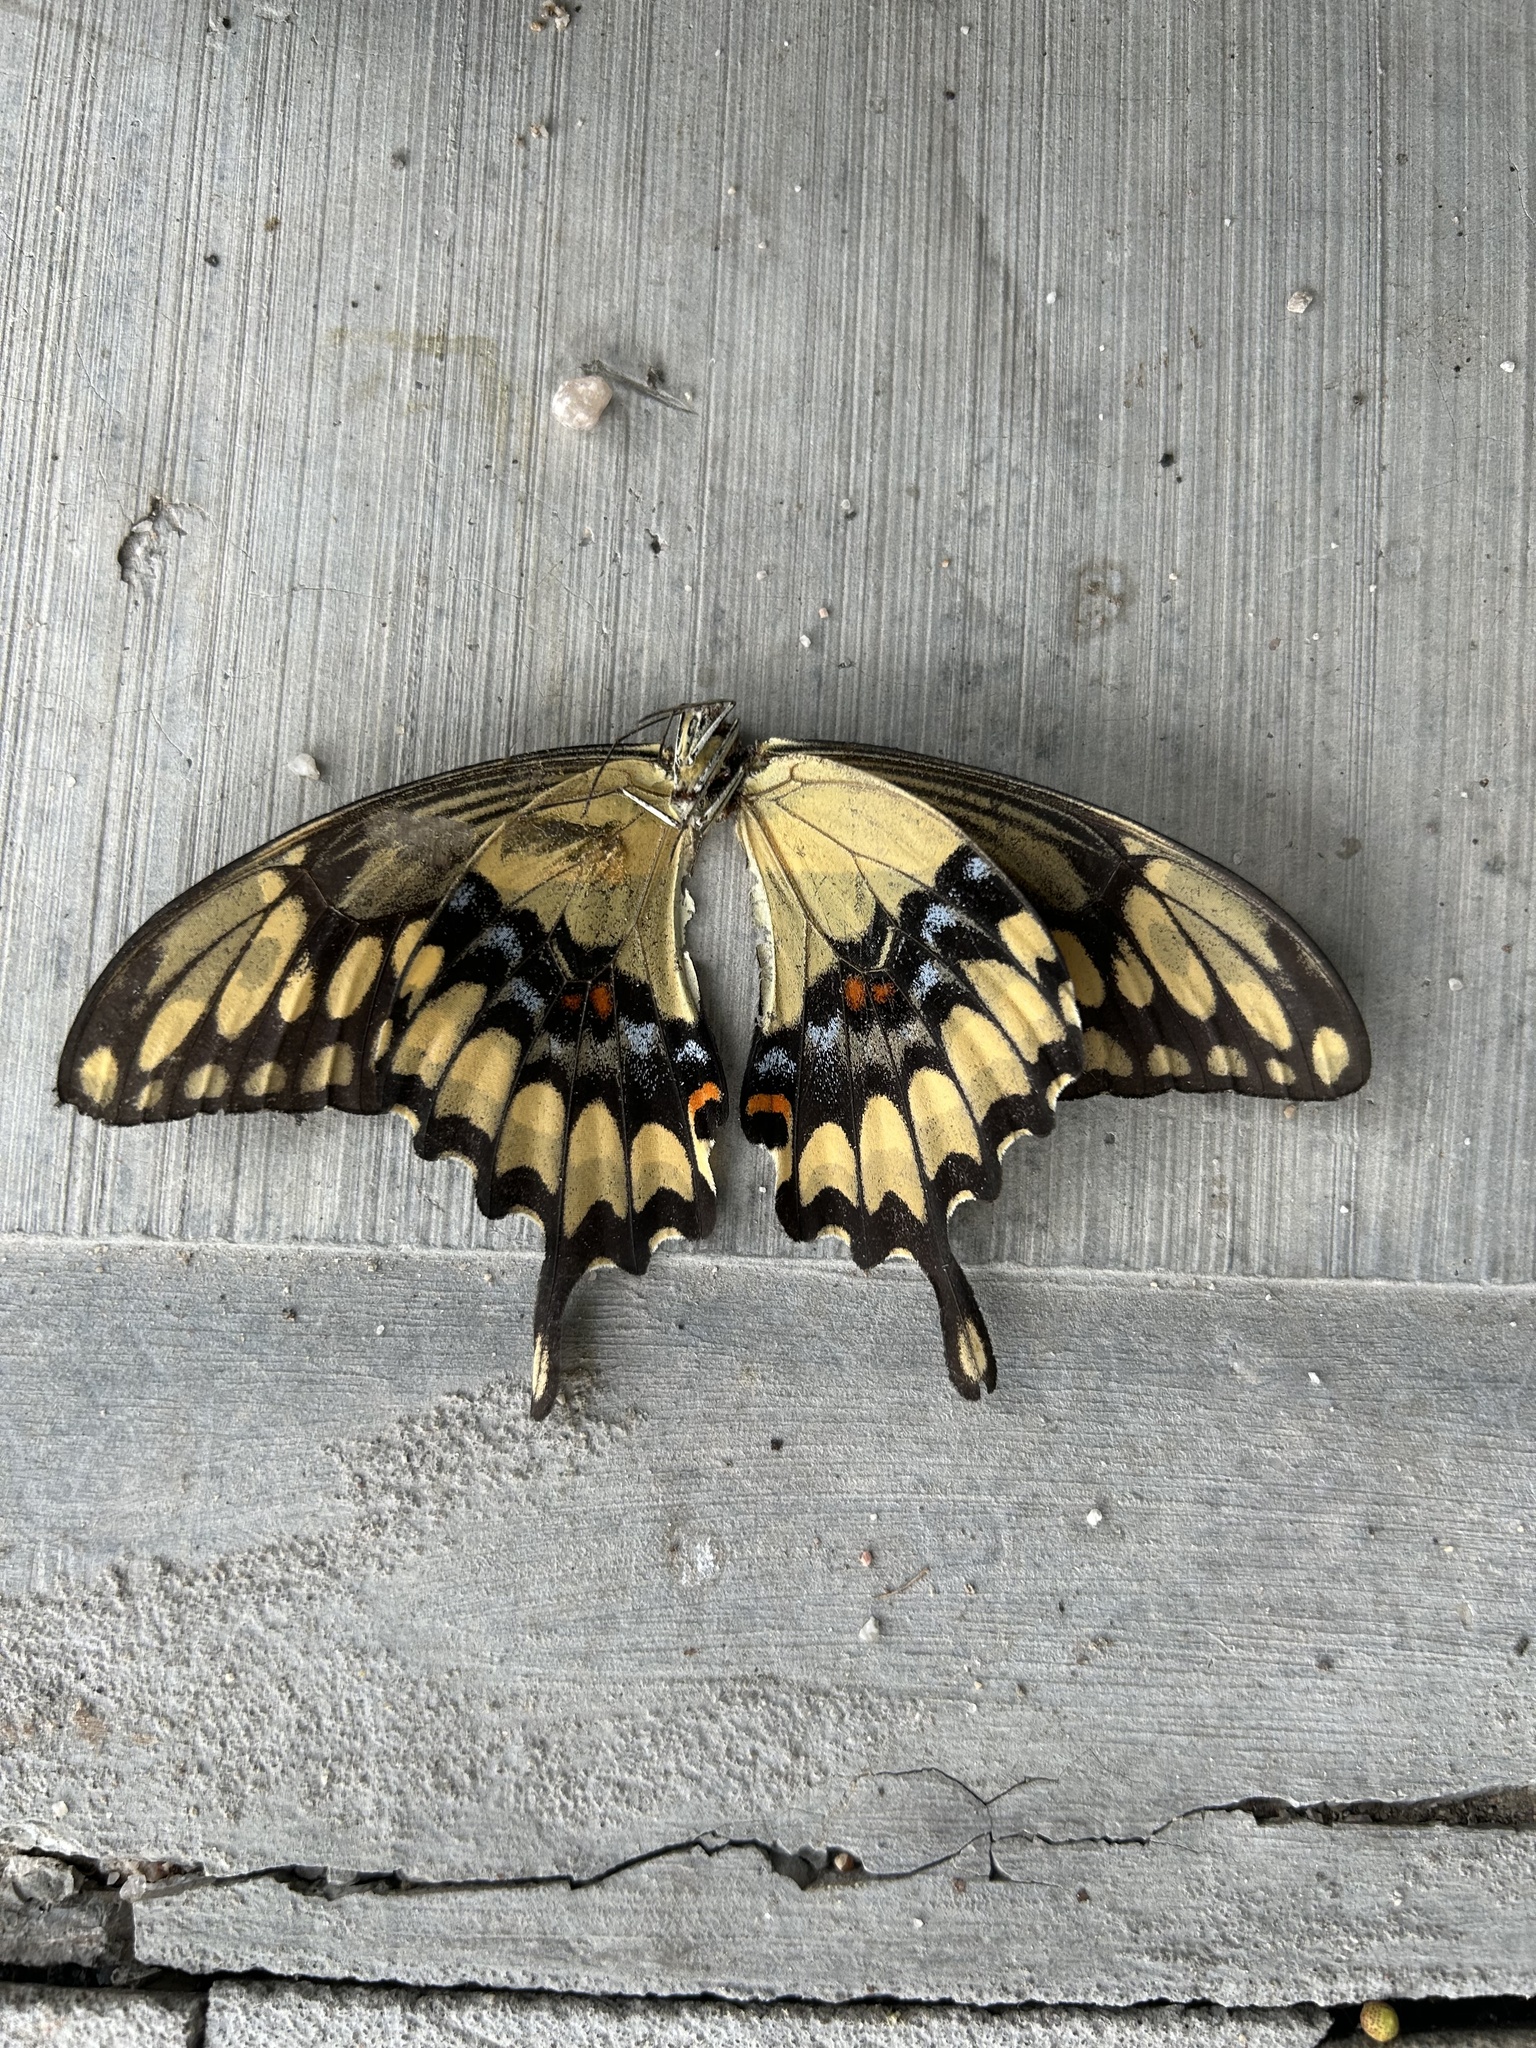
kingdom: Animalia
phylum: Arthropoda
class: Insecta
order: Lepidoptera
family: Papilionidae
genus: Papilio
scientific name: Papilio rumiko
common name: Western giant swallowtail
